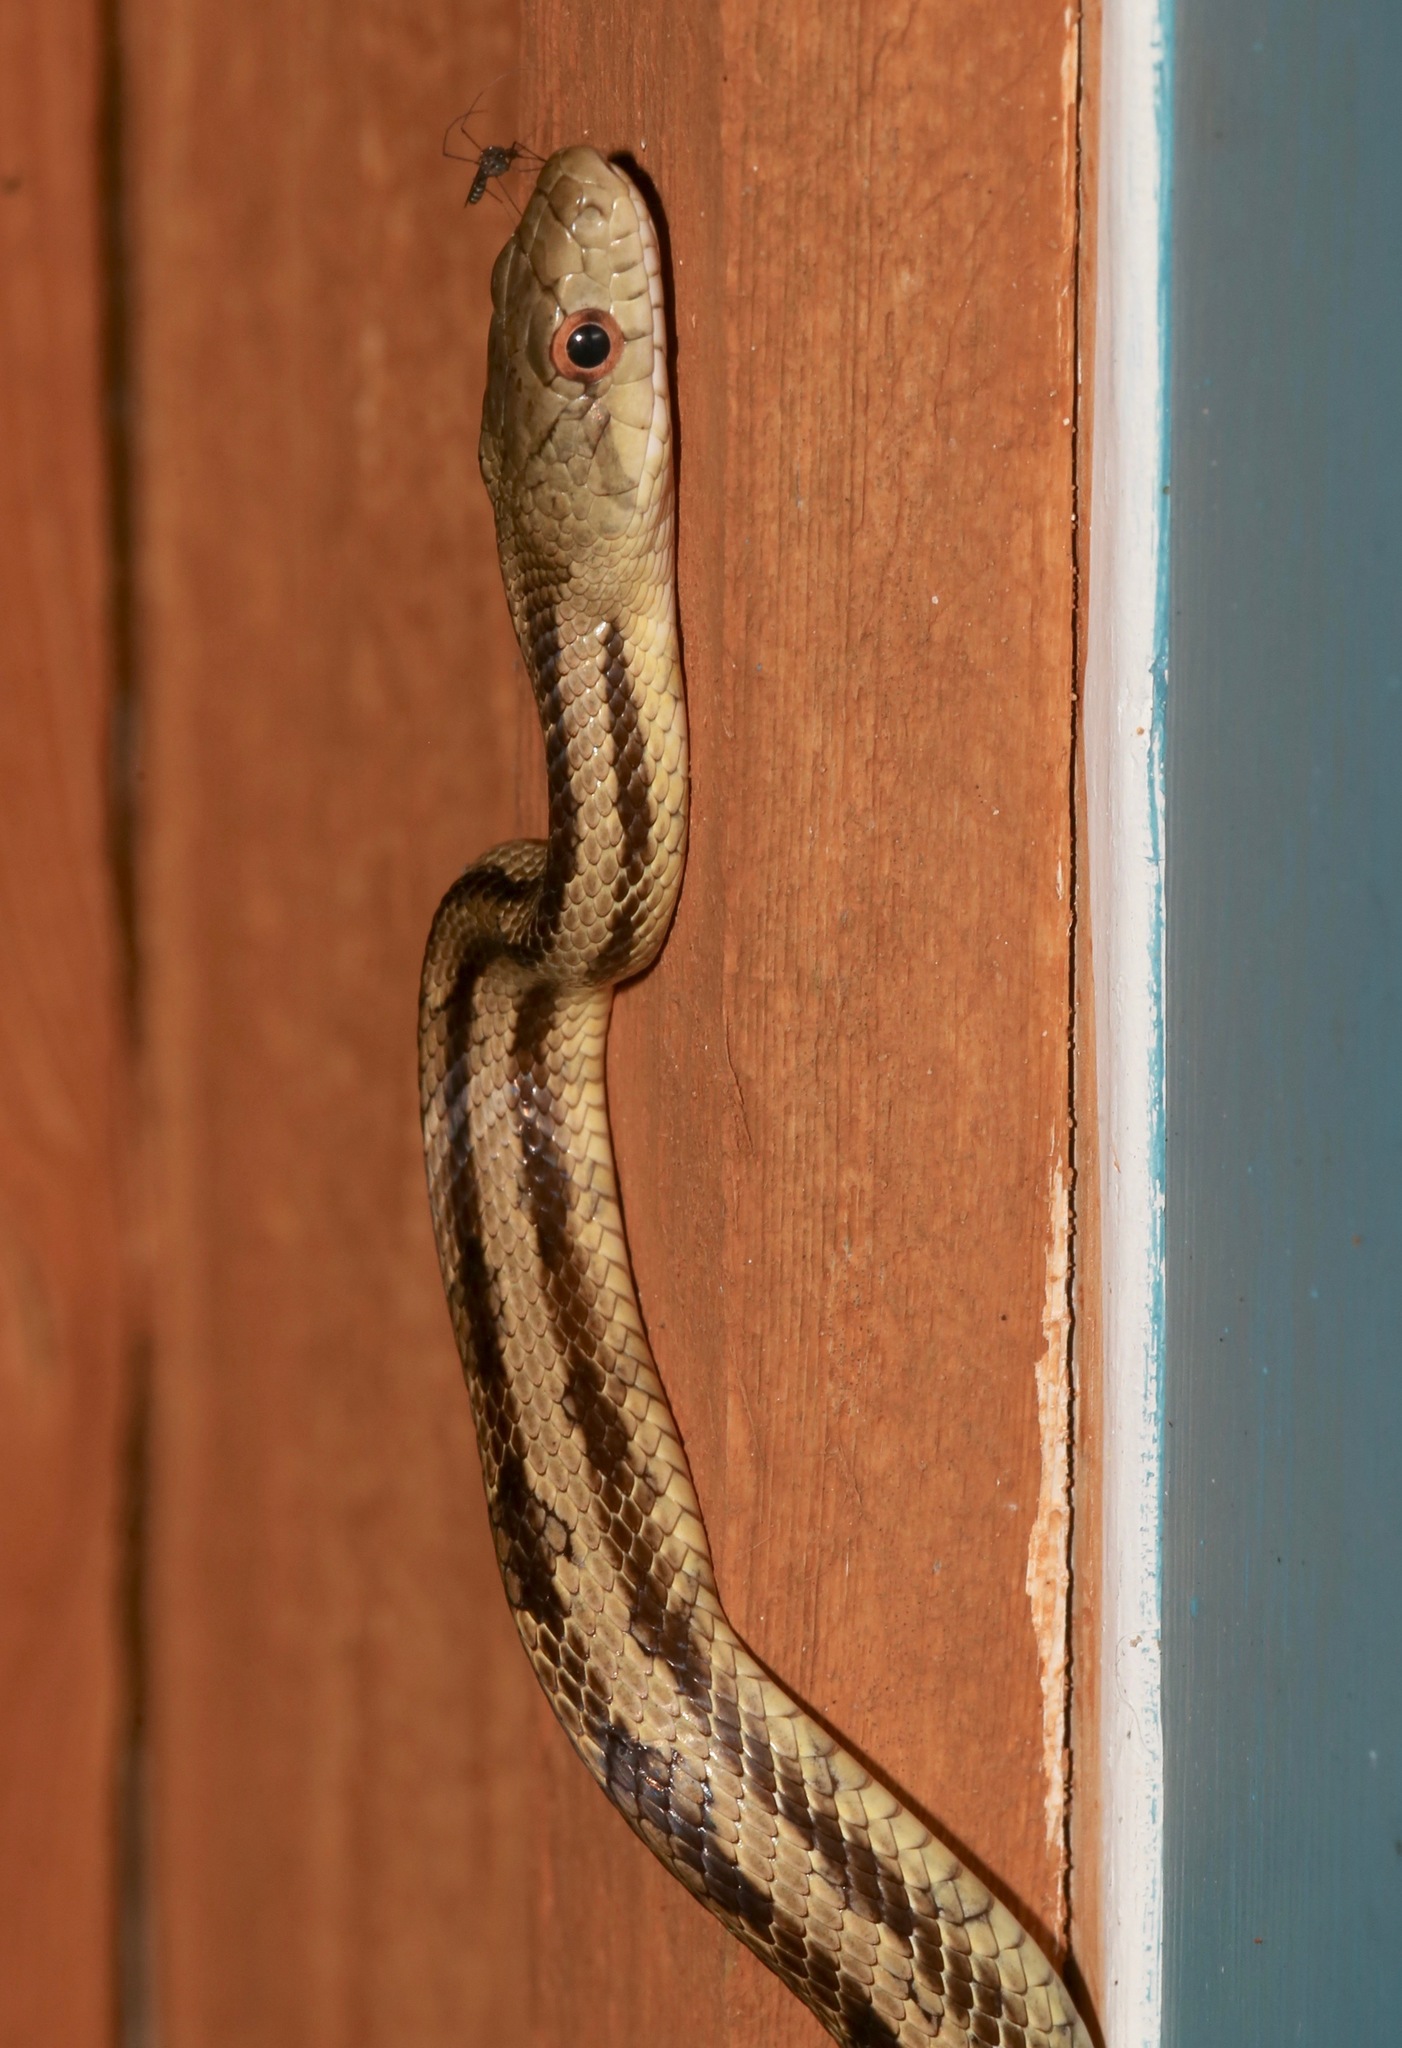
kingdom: Animalia
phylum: Chordata
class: Squamata
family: Colubridae
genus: Pantherophis
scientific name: Pantherophis alleghaniensis
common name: Eastern rat snake
